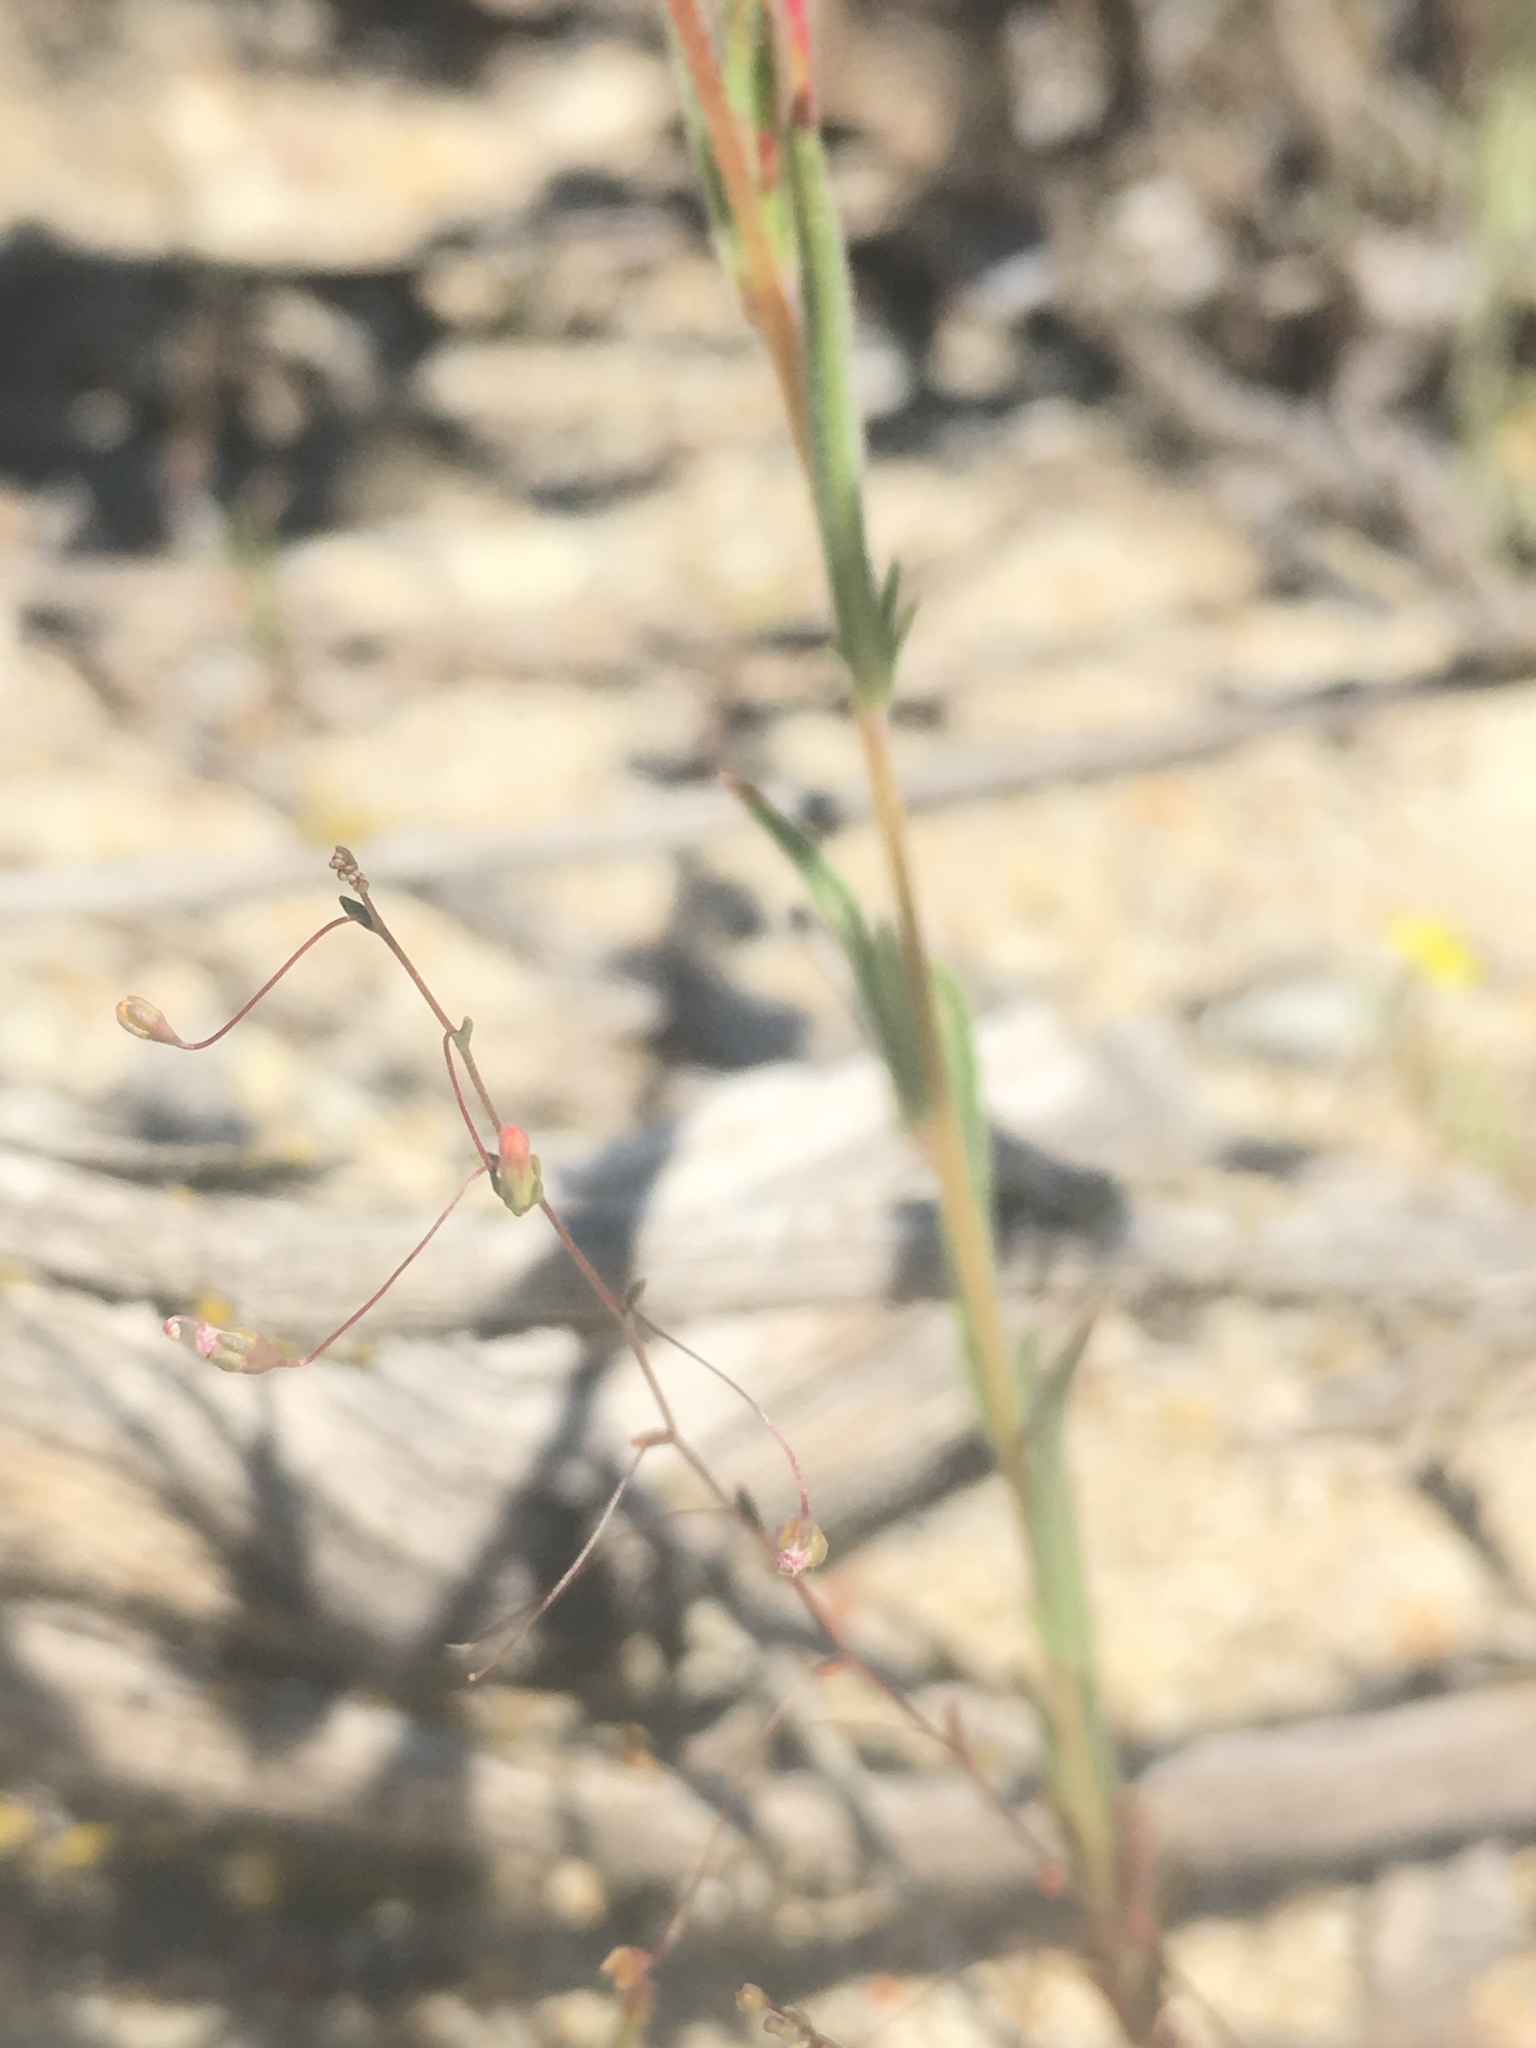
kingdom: Plantae
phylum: Tracheophyta
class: Magnoliopsida
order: Asterales
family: Campanulaceae
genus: Nemacladus
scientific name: Nemacladus secundiflorus
